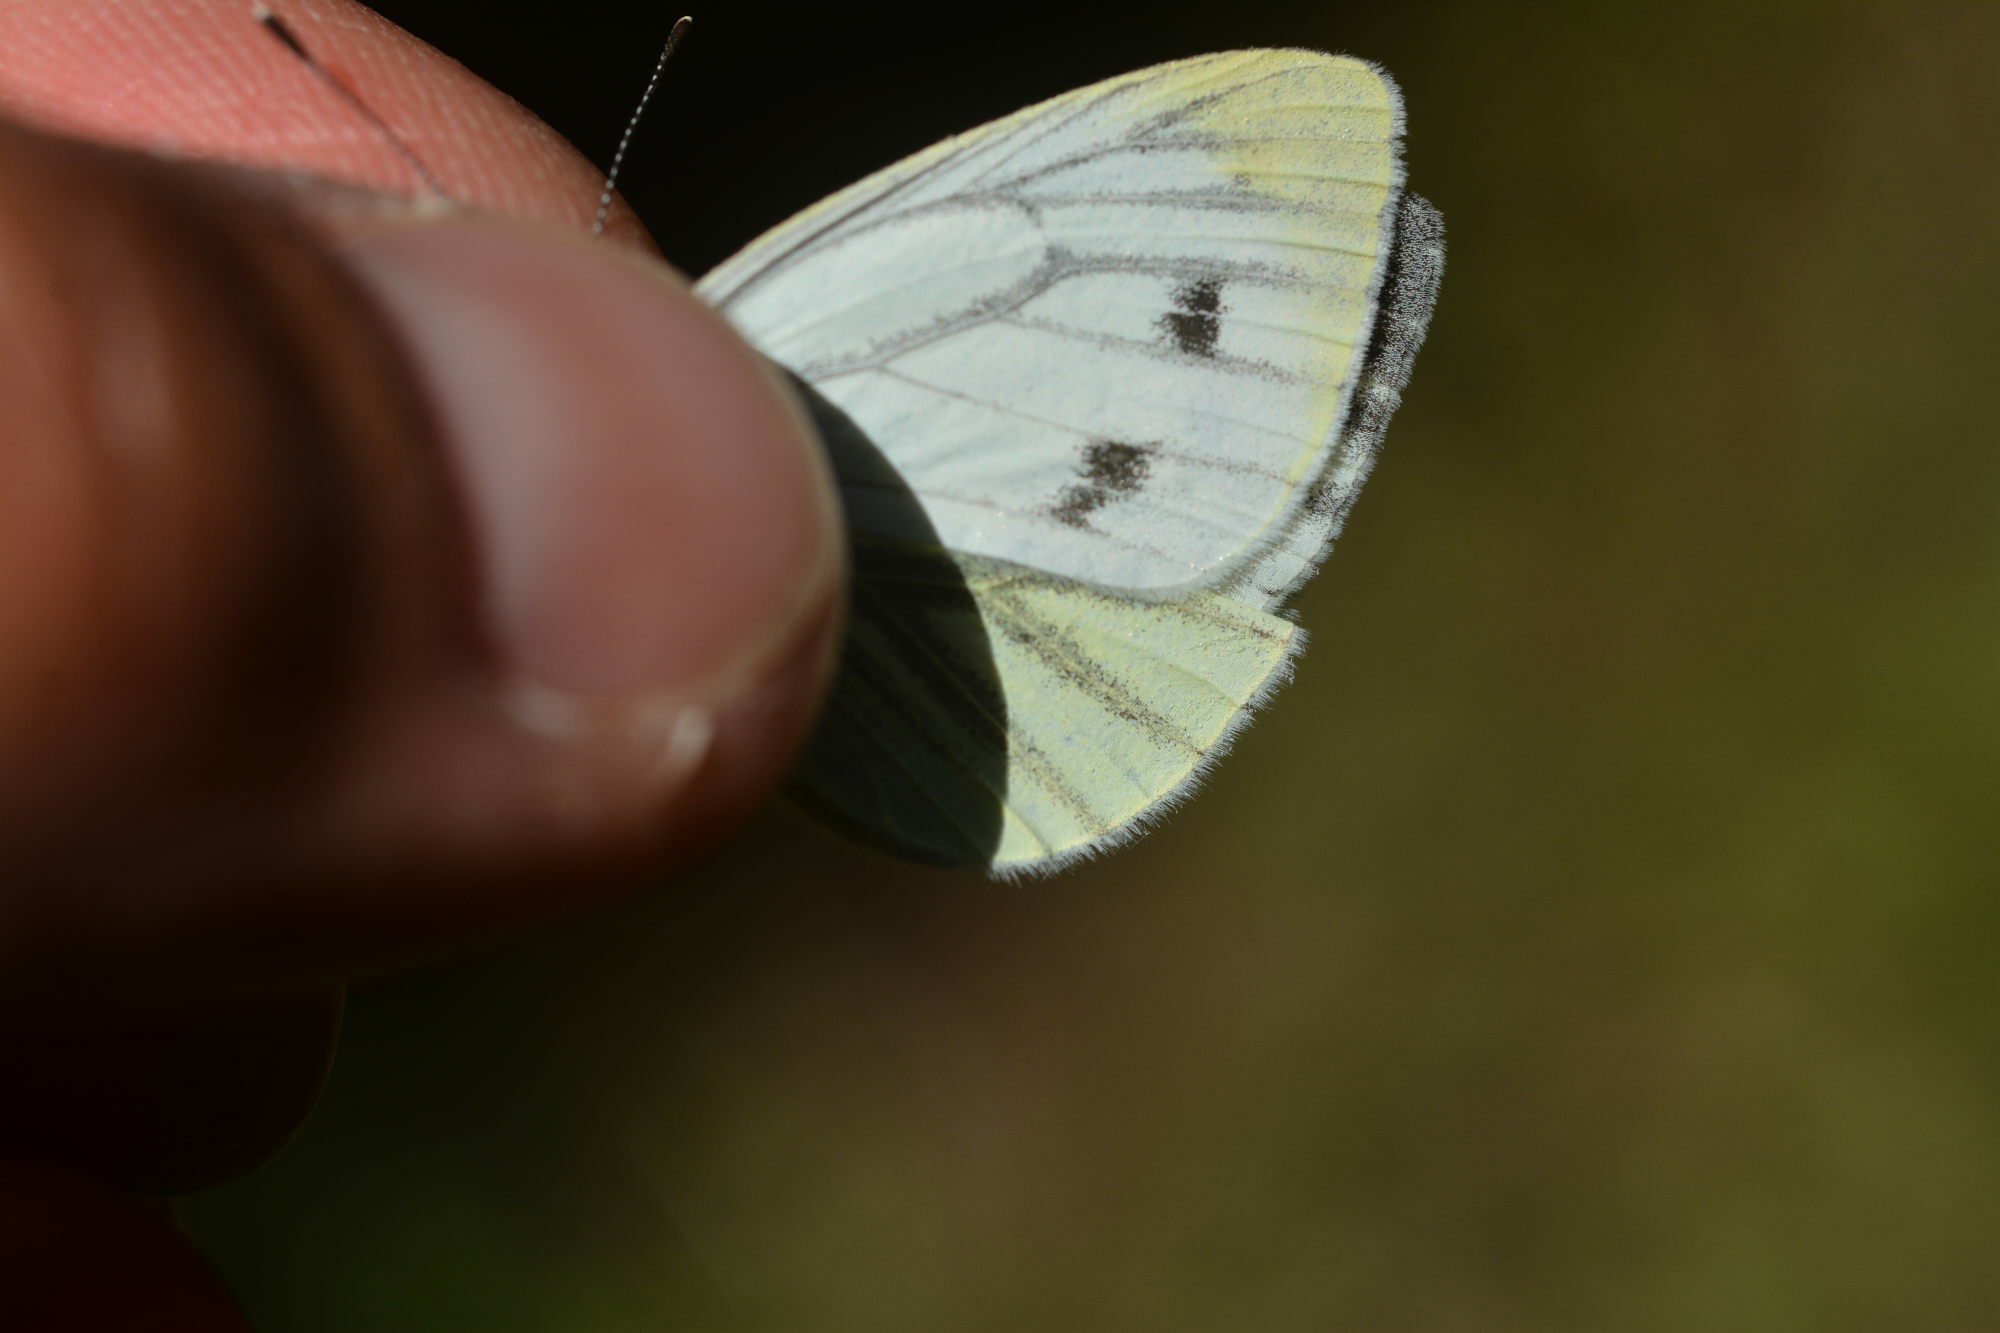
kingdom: Animalia
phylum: Arthropoda
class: Insecta
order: Lepidoptera
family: Pieridae
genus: Pieris
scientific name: Pieris napi
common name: Green-veined white
